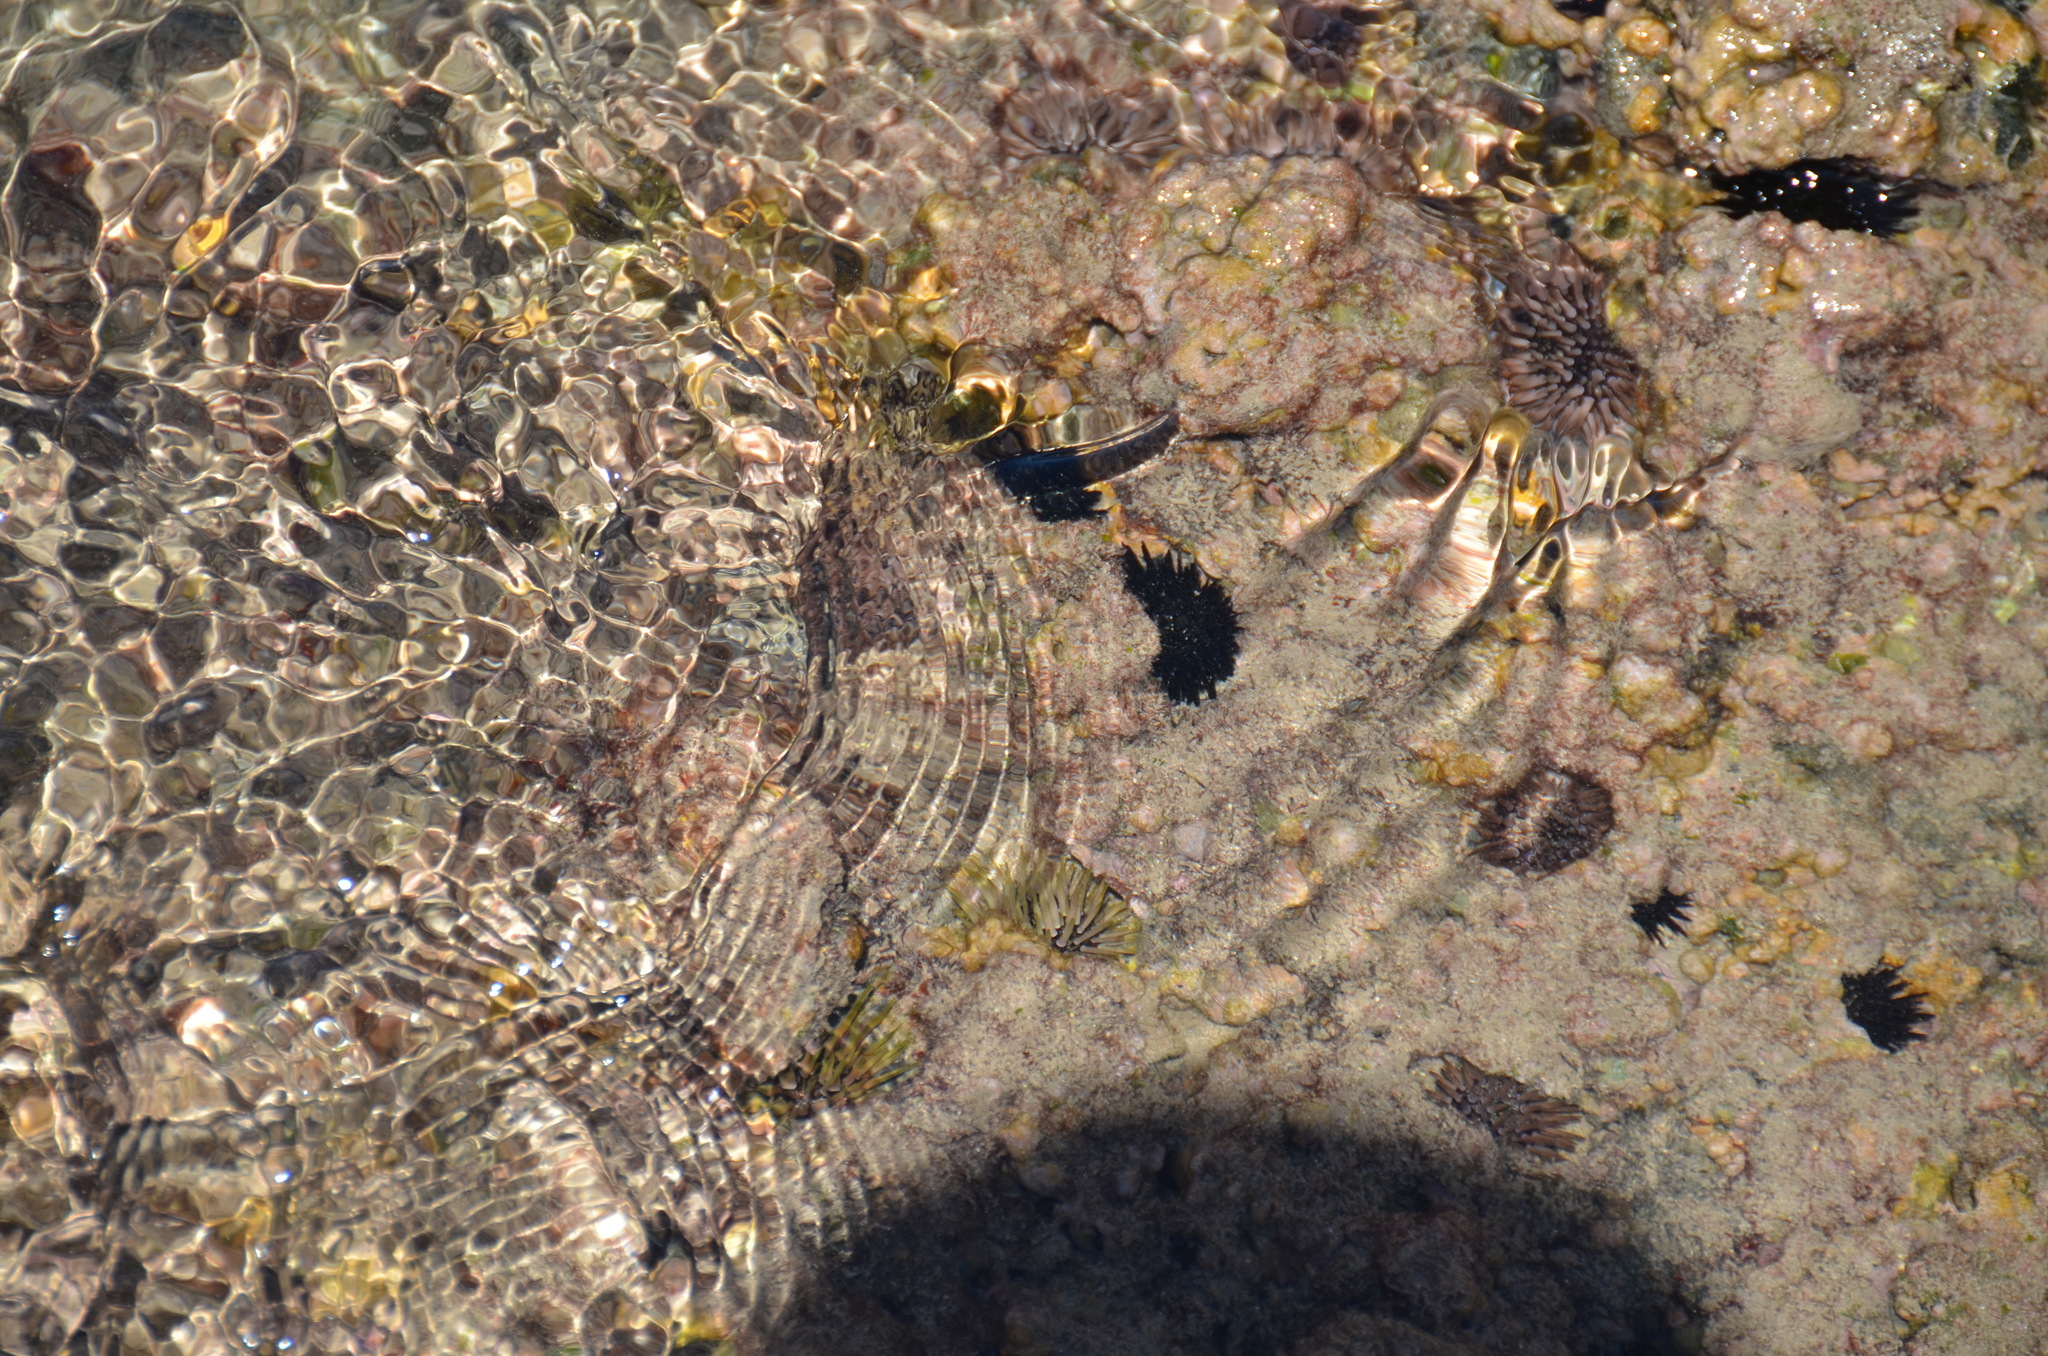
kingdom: Animalia
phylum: Echinodermata
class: Echinoidea
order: Camarodonta
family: Echinometridae
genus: Echinometra
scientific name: Echinometra mathaei
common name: Rock-boring urchin
